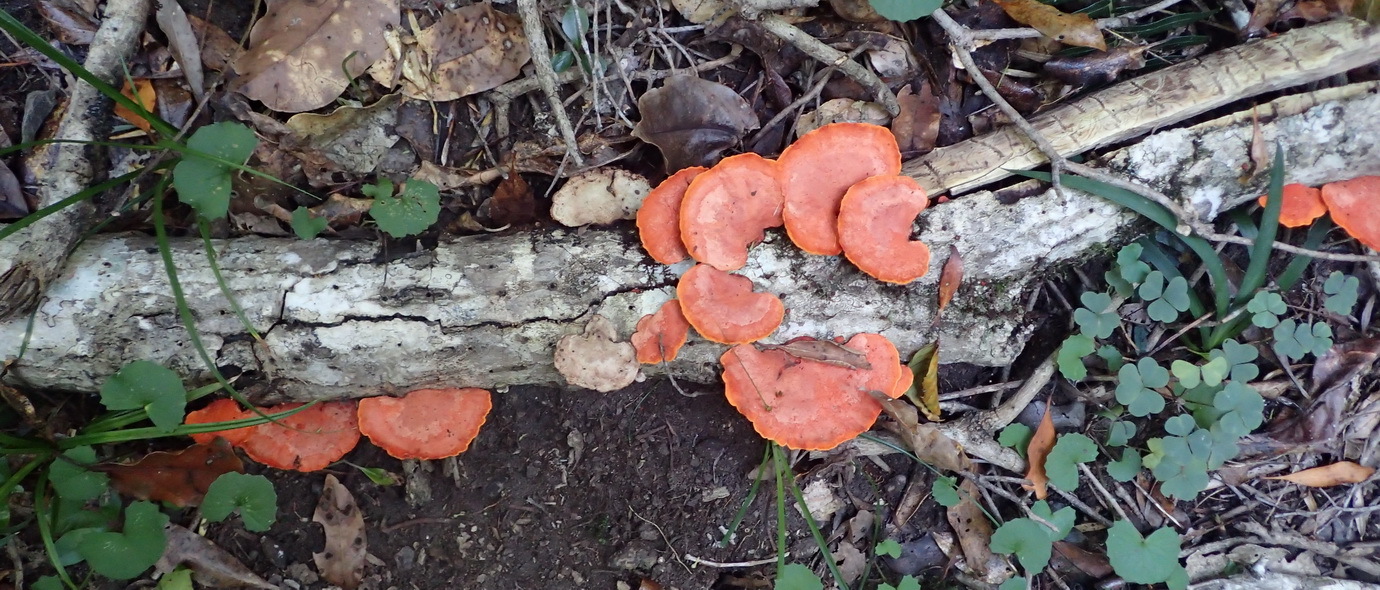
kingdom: Fungi
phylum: Basidiomycota
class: Agaricomycetes
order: Polyporales
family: Polyporaceae
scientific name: Polyporaceae
